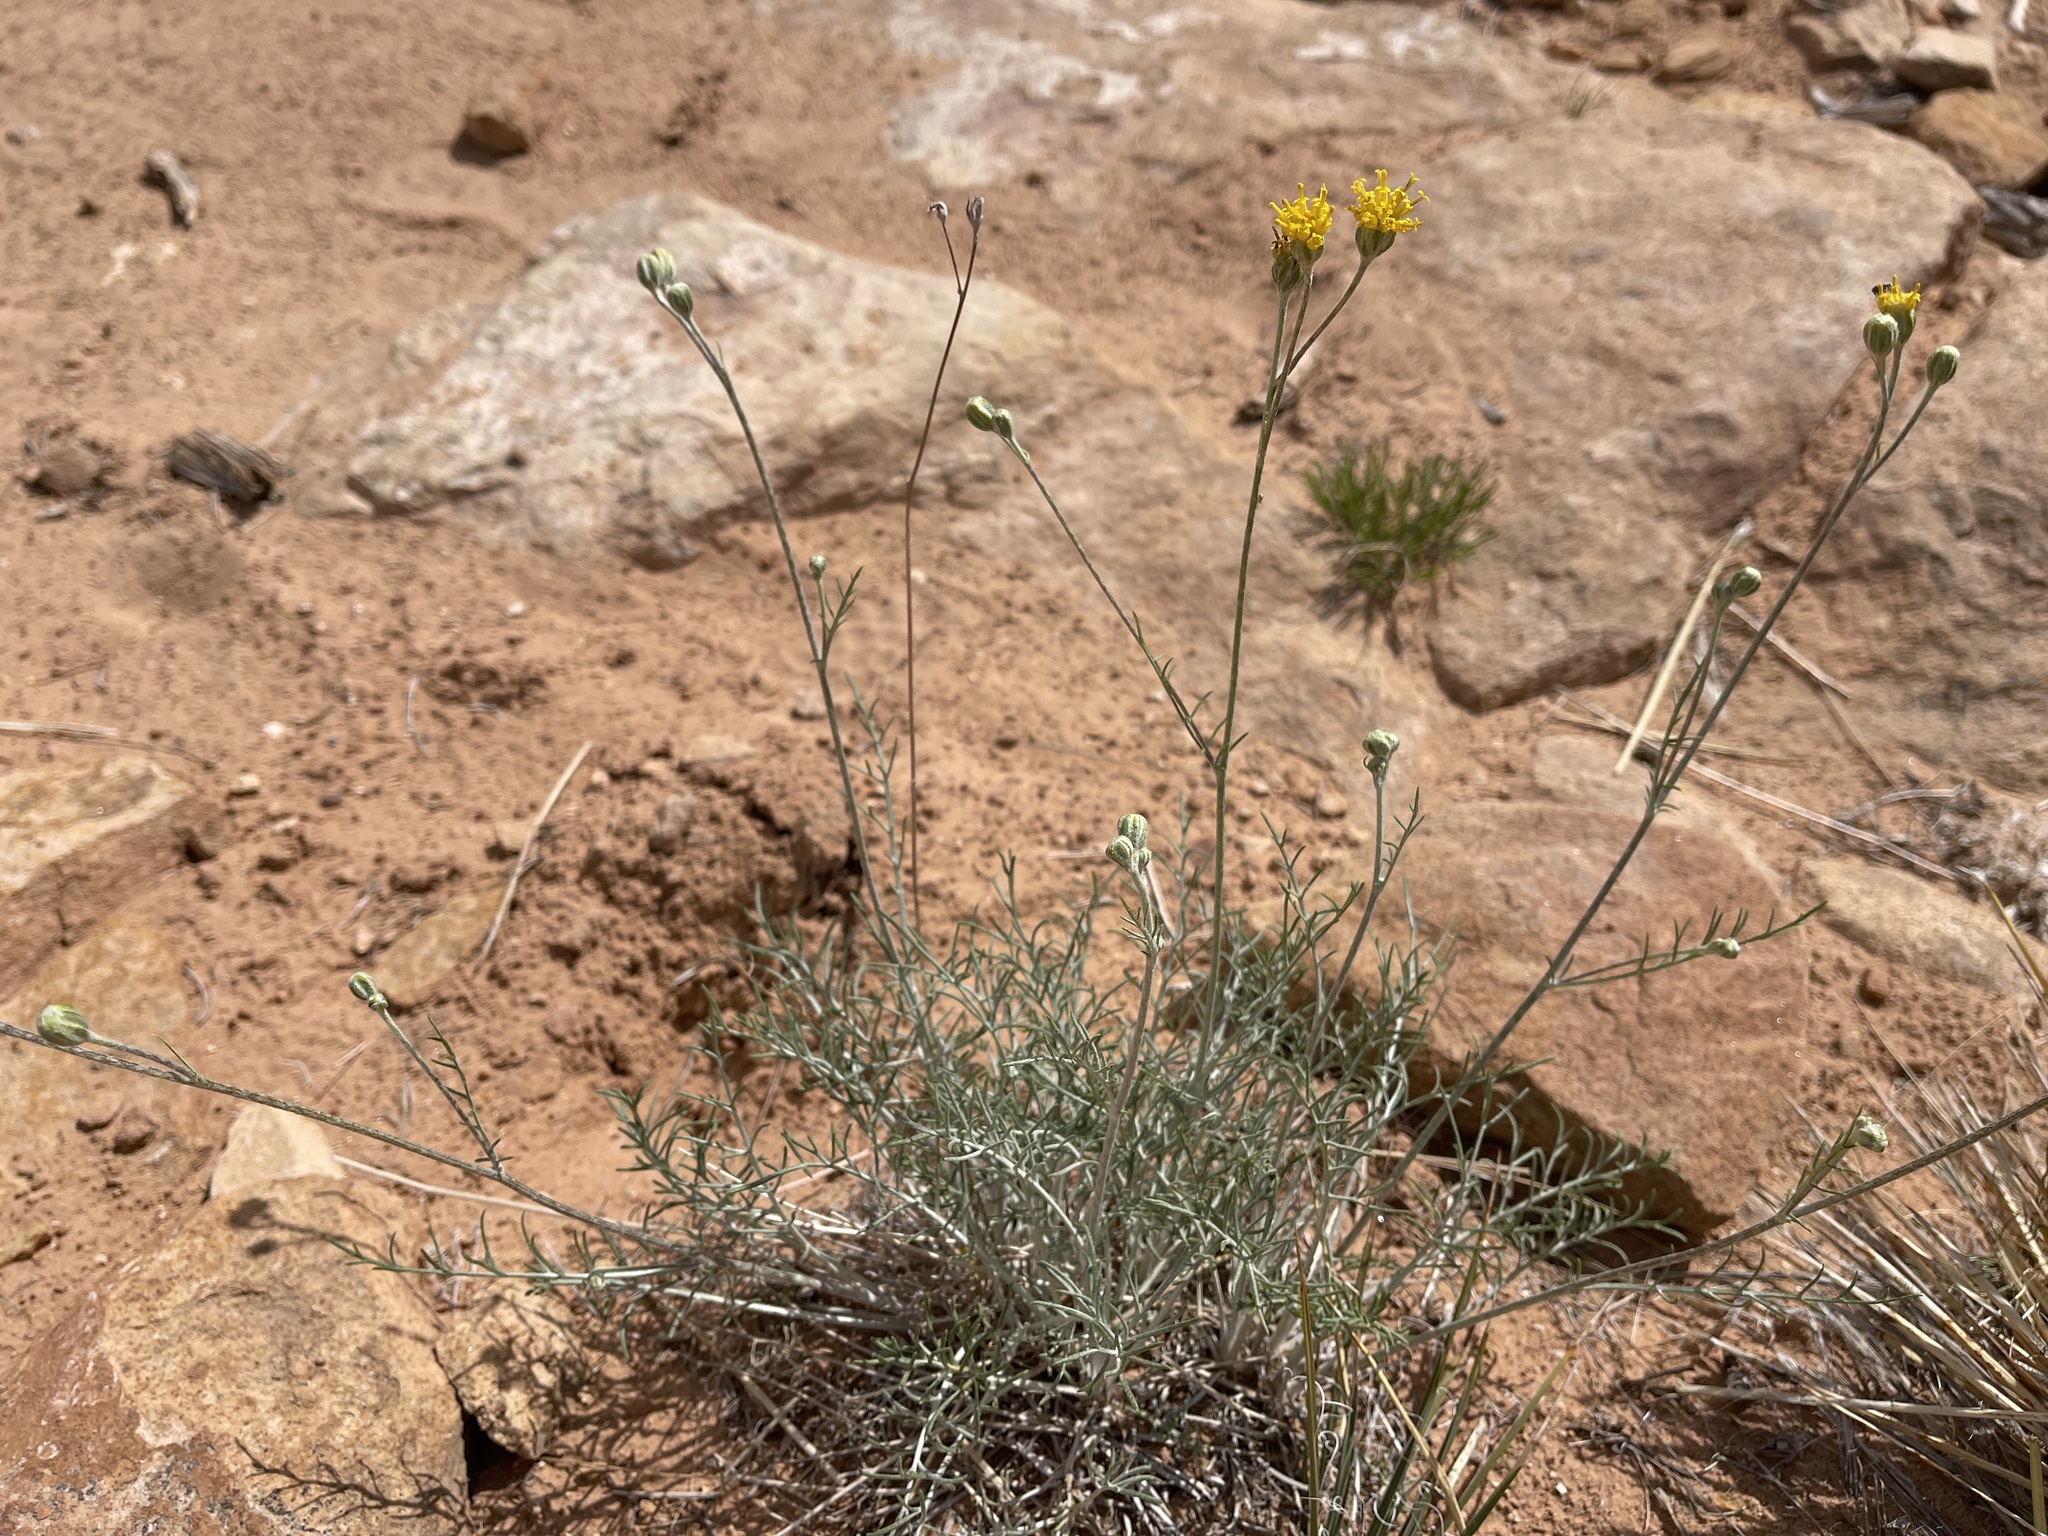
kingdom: Plantae
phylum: Tracheophyta
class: Magnoliopsida
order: Asterales
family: Asteraceae
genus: Hymenopappus
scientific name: Hymenopappus filifolius
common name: Columbia cutleaf
